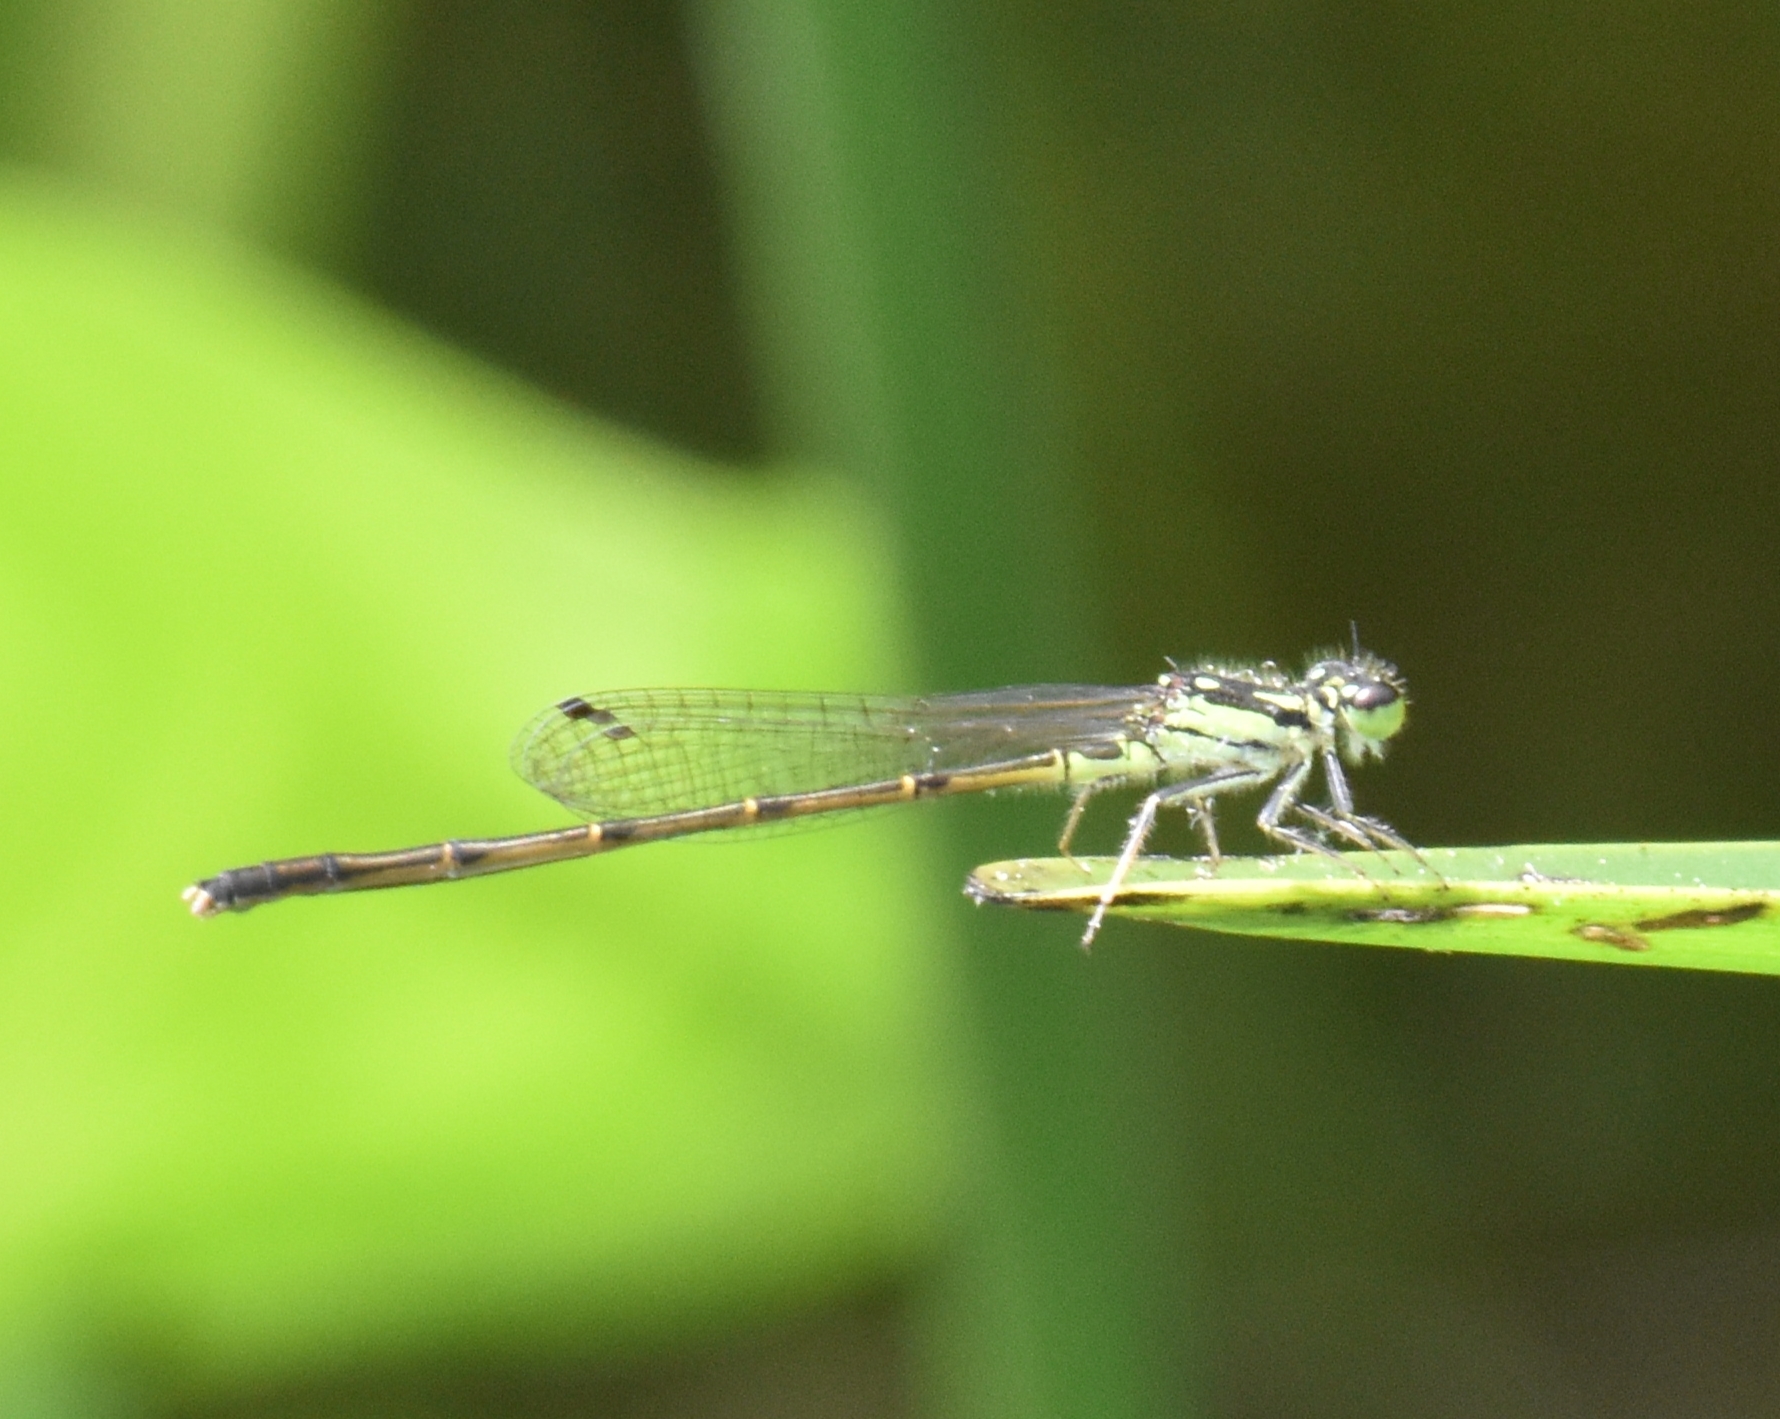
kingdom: Animalia
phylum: Arthropoda
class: Insecta
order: Odonata
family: Coenagrionidae
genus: Ischnura
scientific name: Ischnura posita
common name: Fragile forktail
